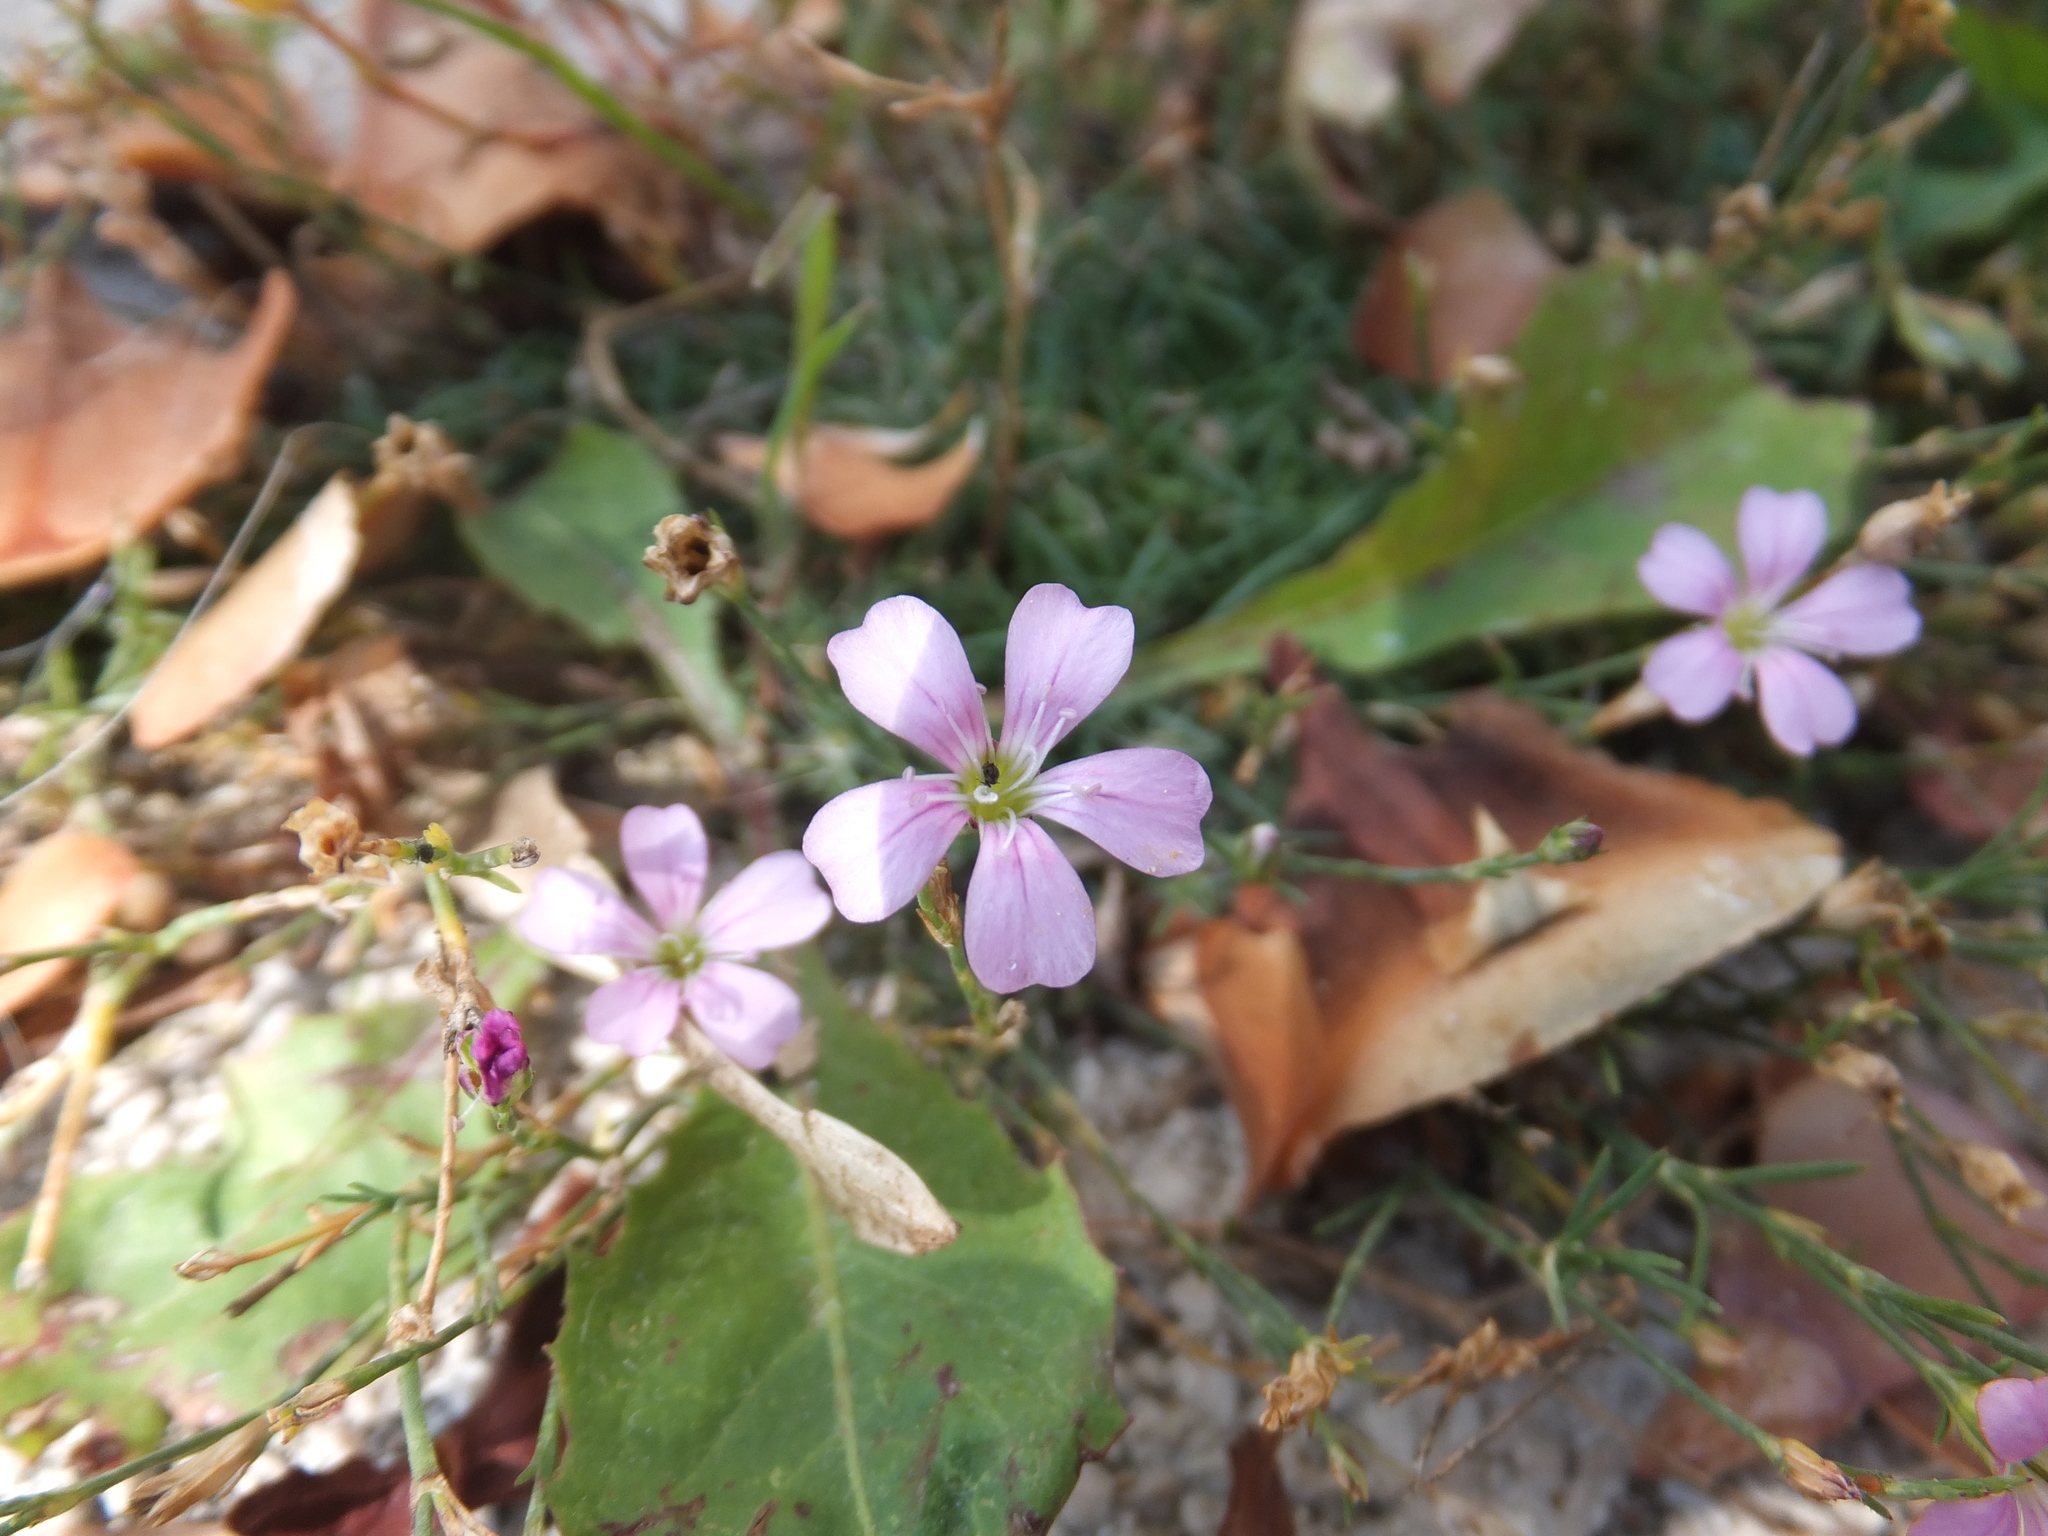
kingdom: Plantae
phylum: Tracheophyta
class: Magnoliopsida
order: Caryophyllales
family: Caryophyllaceae
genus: Petrorhagia
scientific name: Petrorhagia saxifraga
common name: Tunicflower
